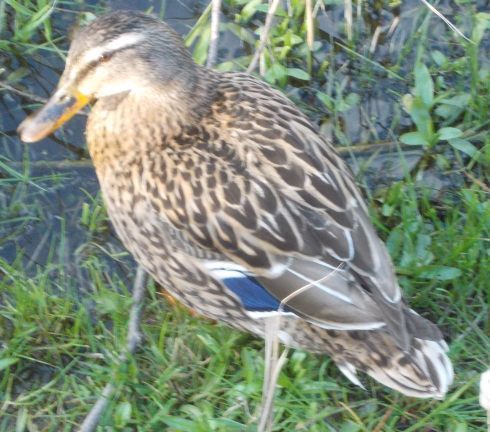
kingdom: Animalia
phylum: Chordata
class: Aves
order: Anseriformes
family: Anatidae
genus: Anas
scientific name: Anas platyrhynchos
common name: Mallard
